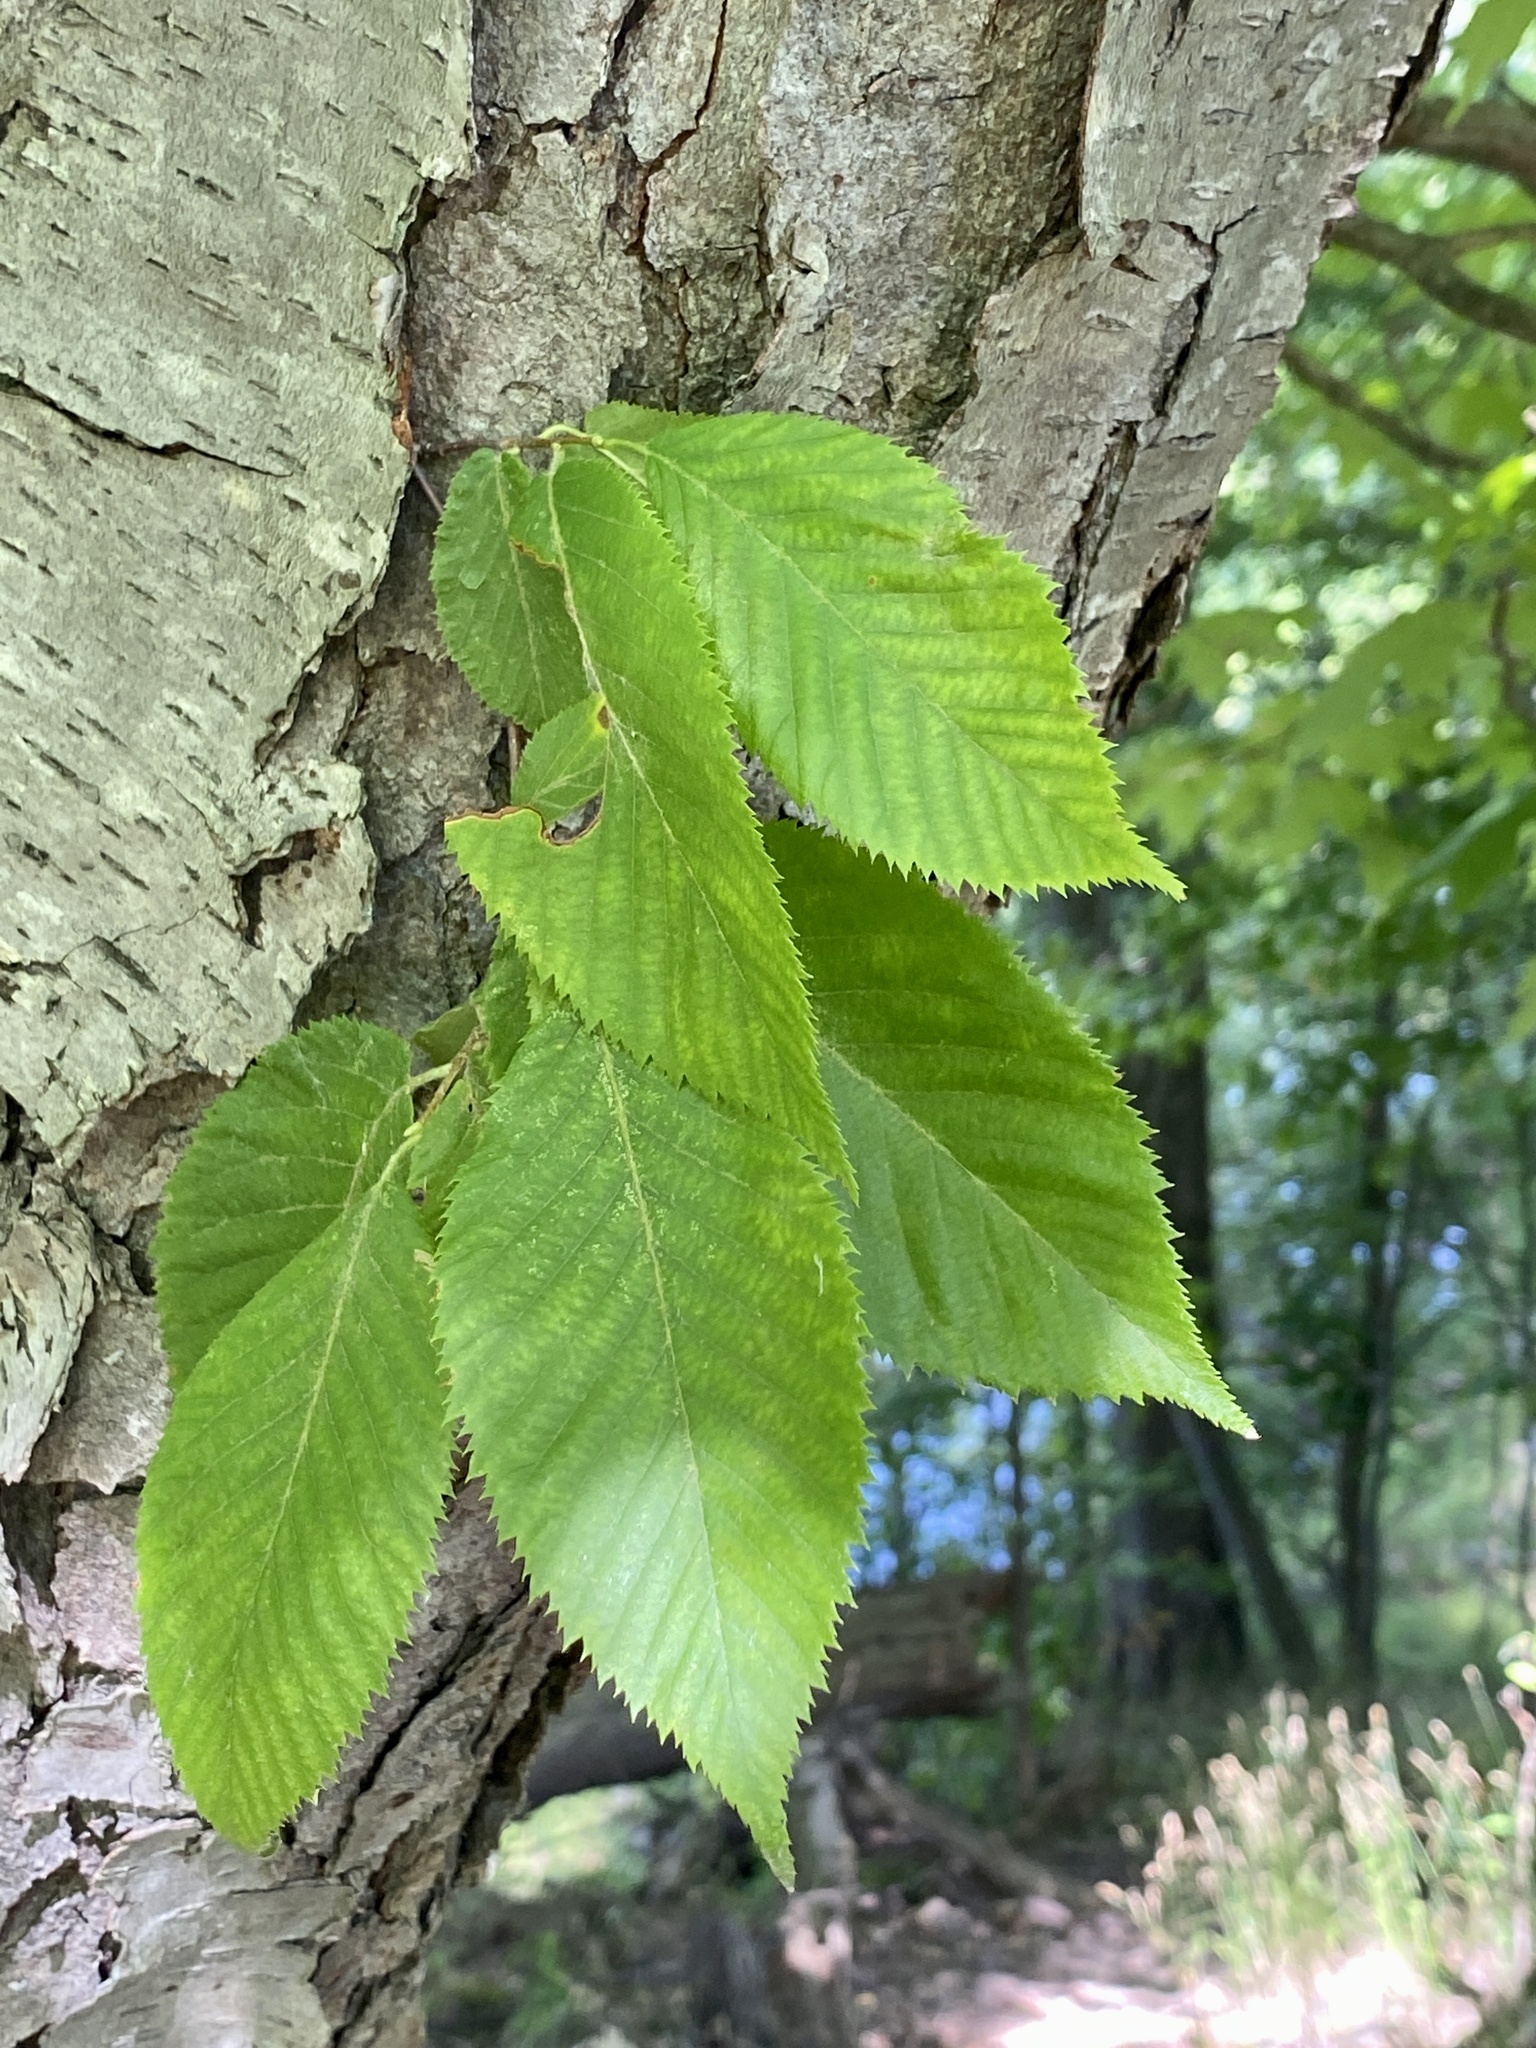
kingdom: Plantae
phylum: Tracheophyta
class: Magnoliopsida
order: Fagales
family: Betulaceae
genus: Betula
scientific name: Betula lenta
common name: Black birch
